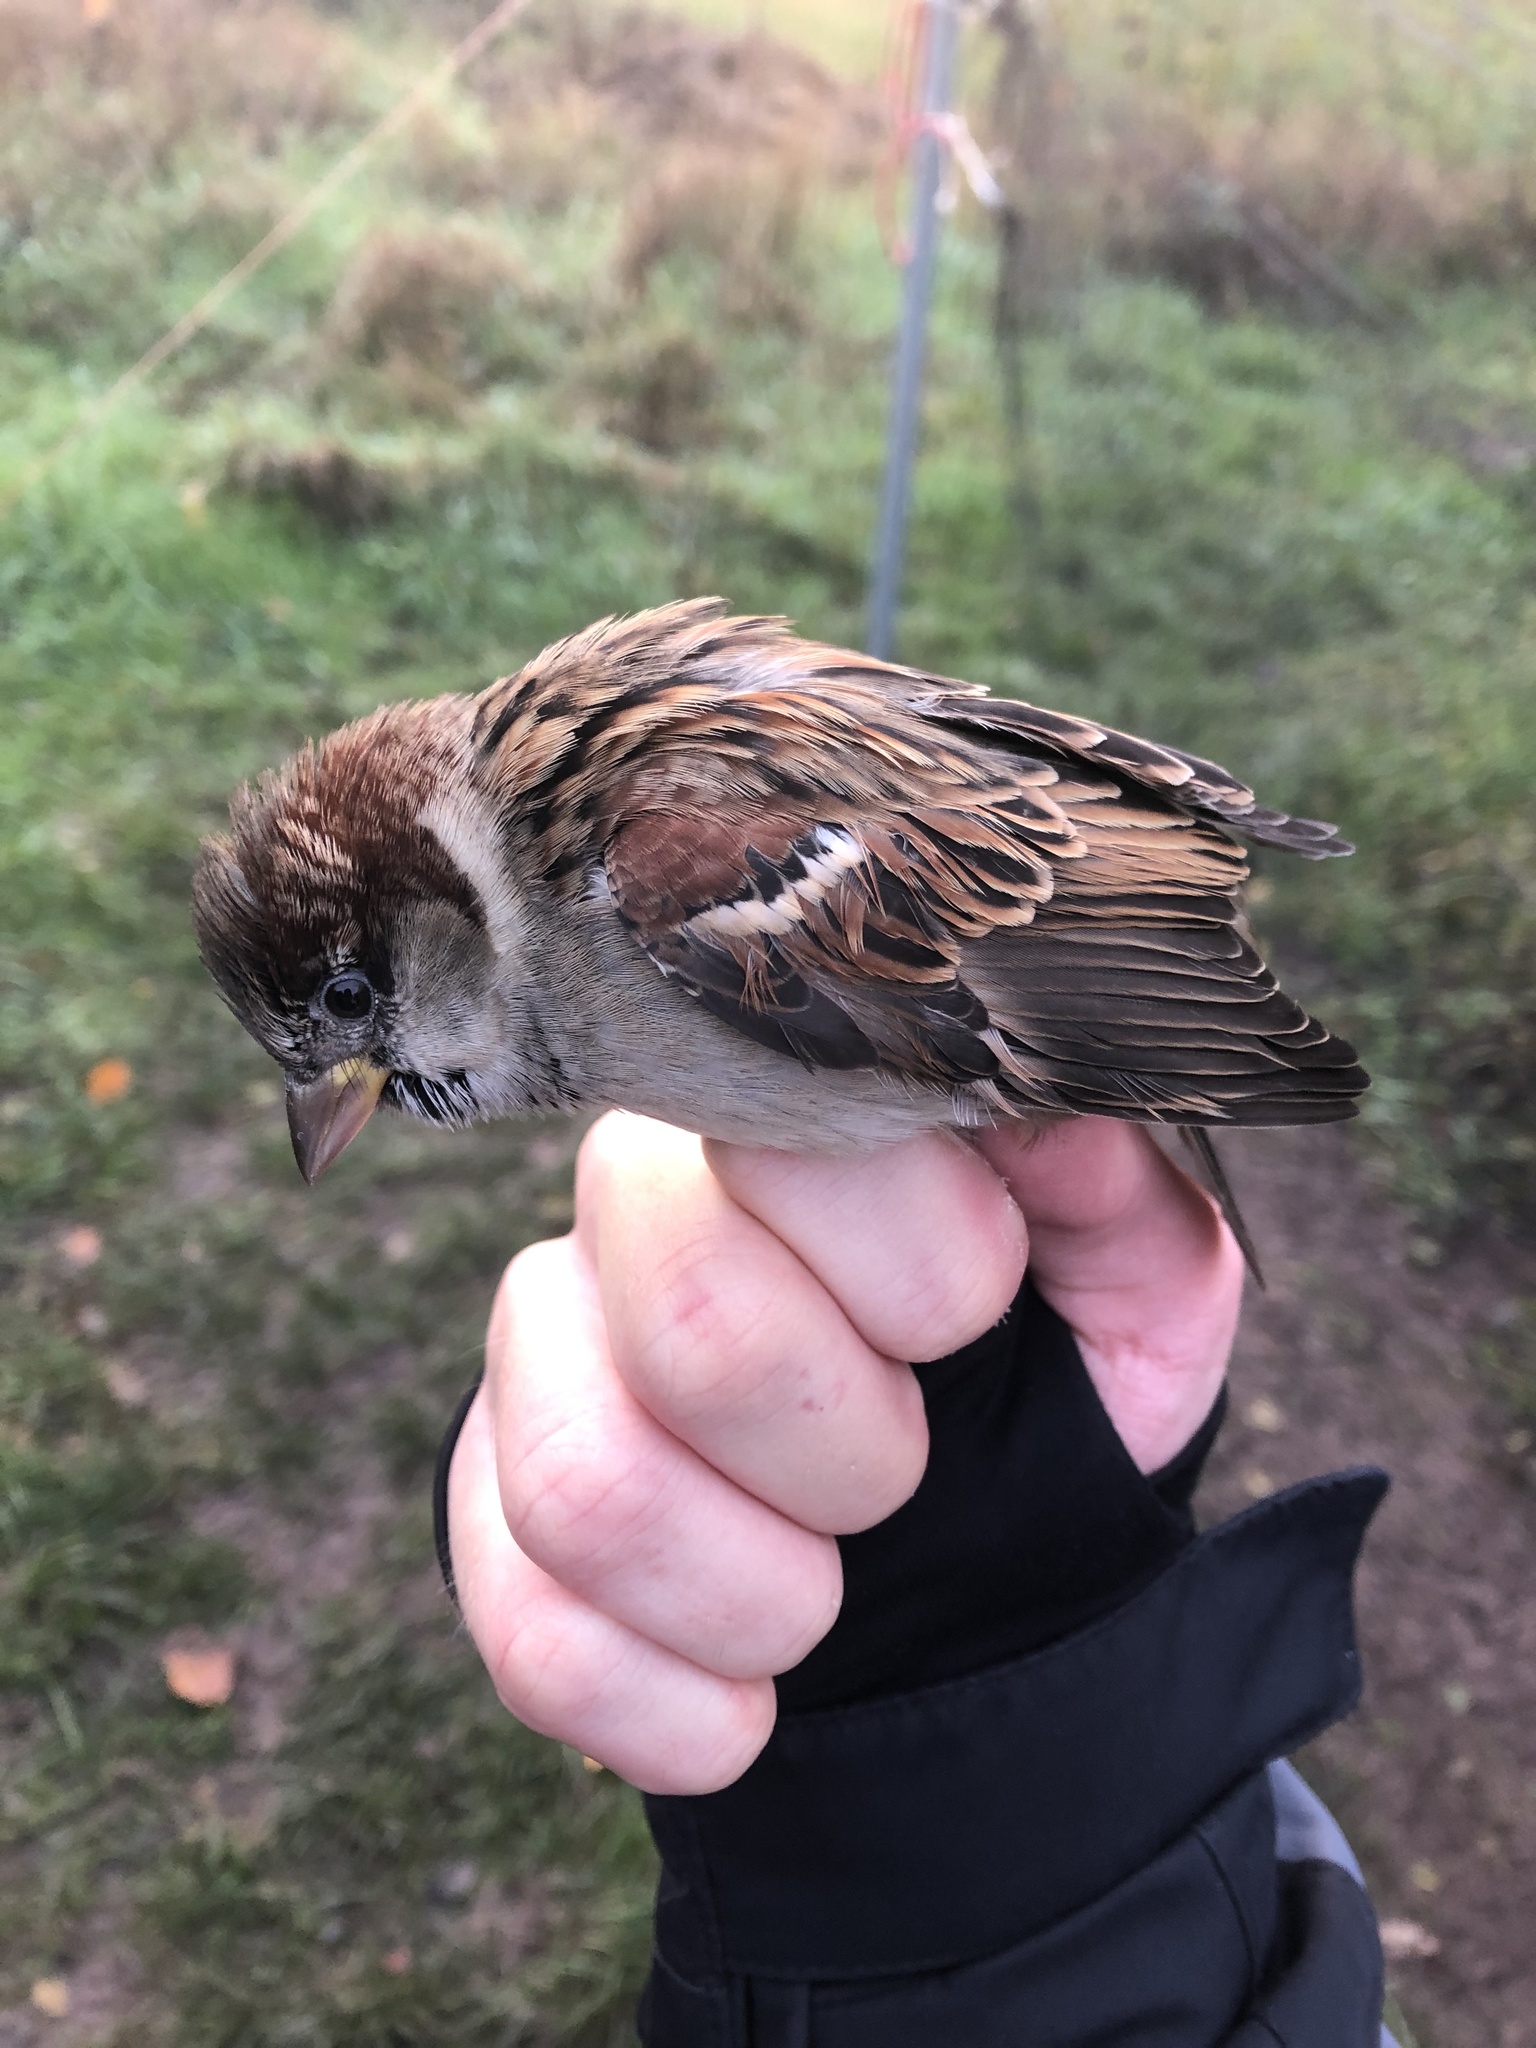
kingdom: Animalia
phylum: Chordata
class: Aves
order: Passeriformes
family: Passeridae
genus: Passer
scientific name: Passer domesticus
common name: House sparrow
